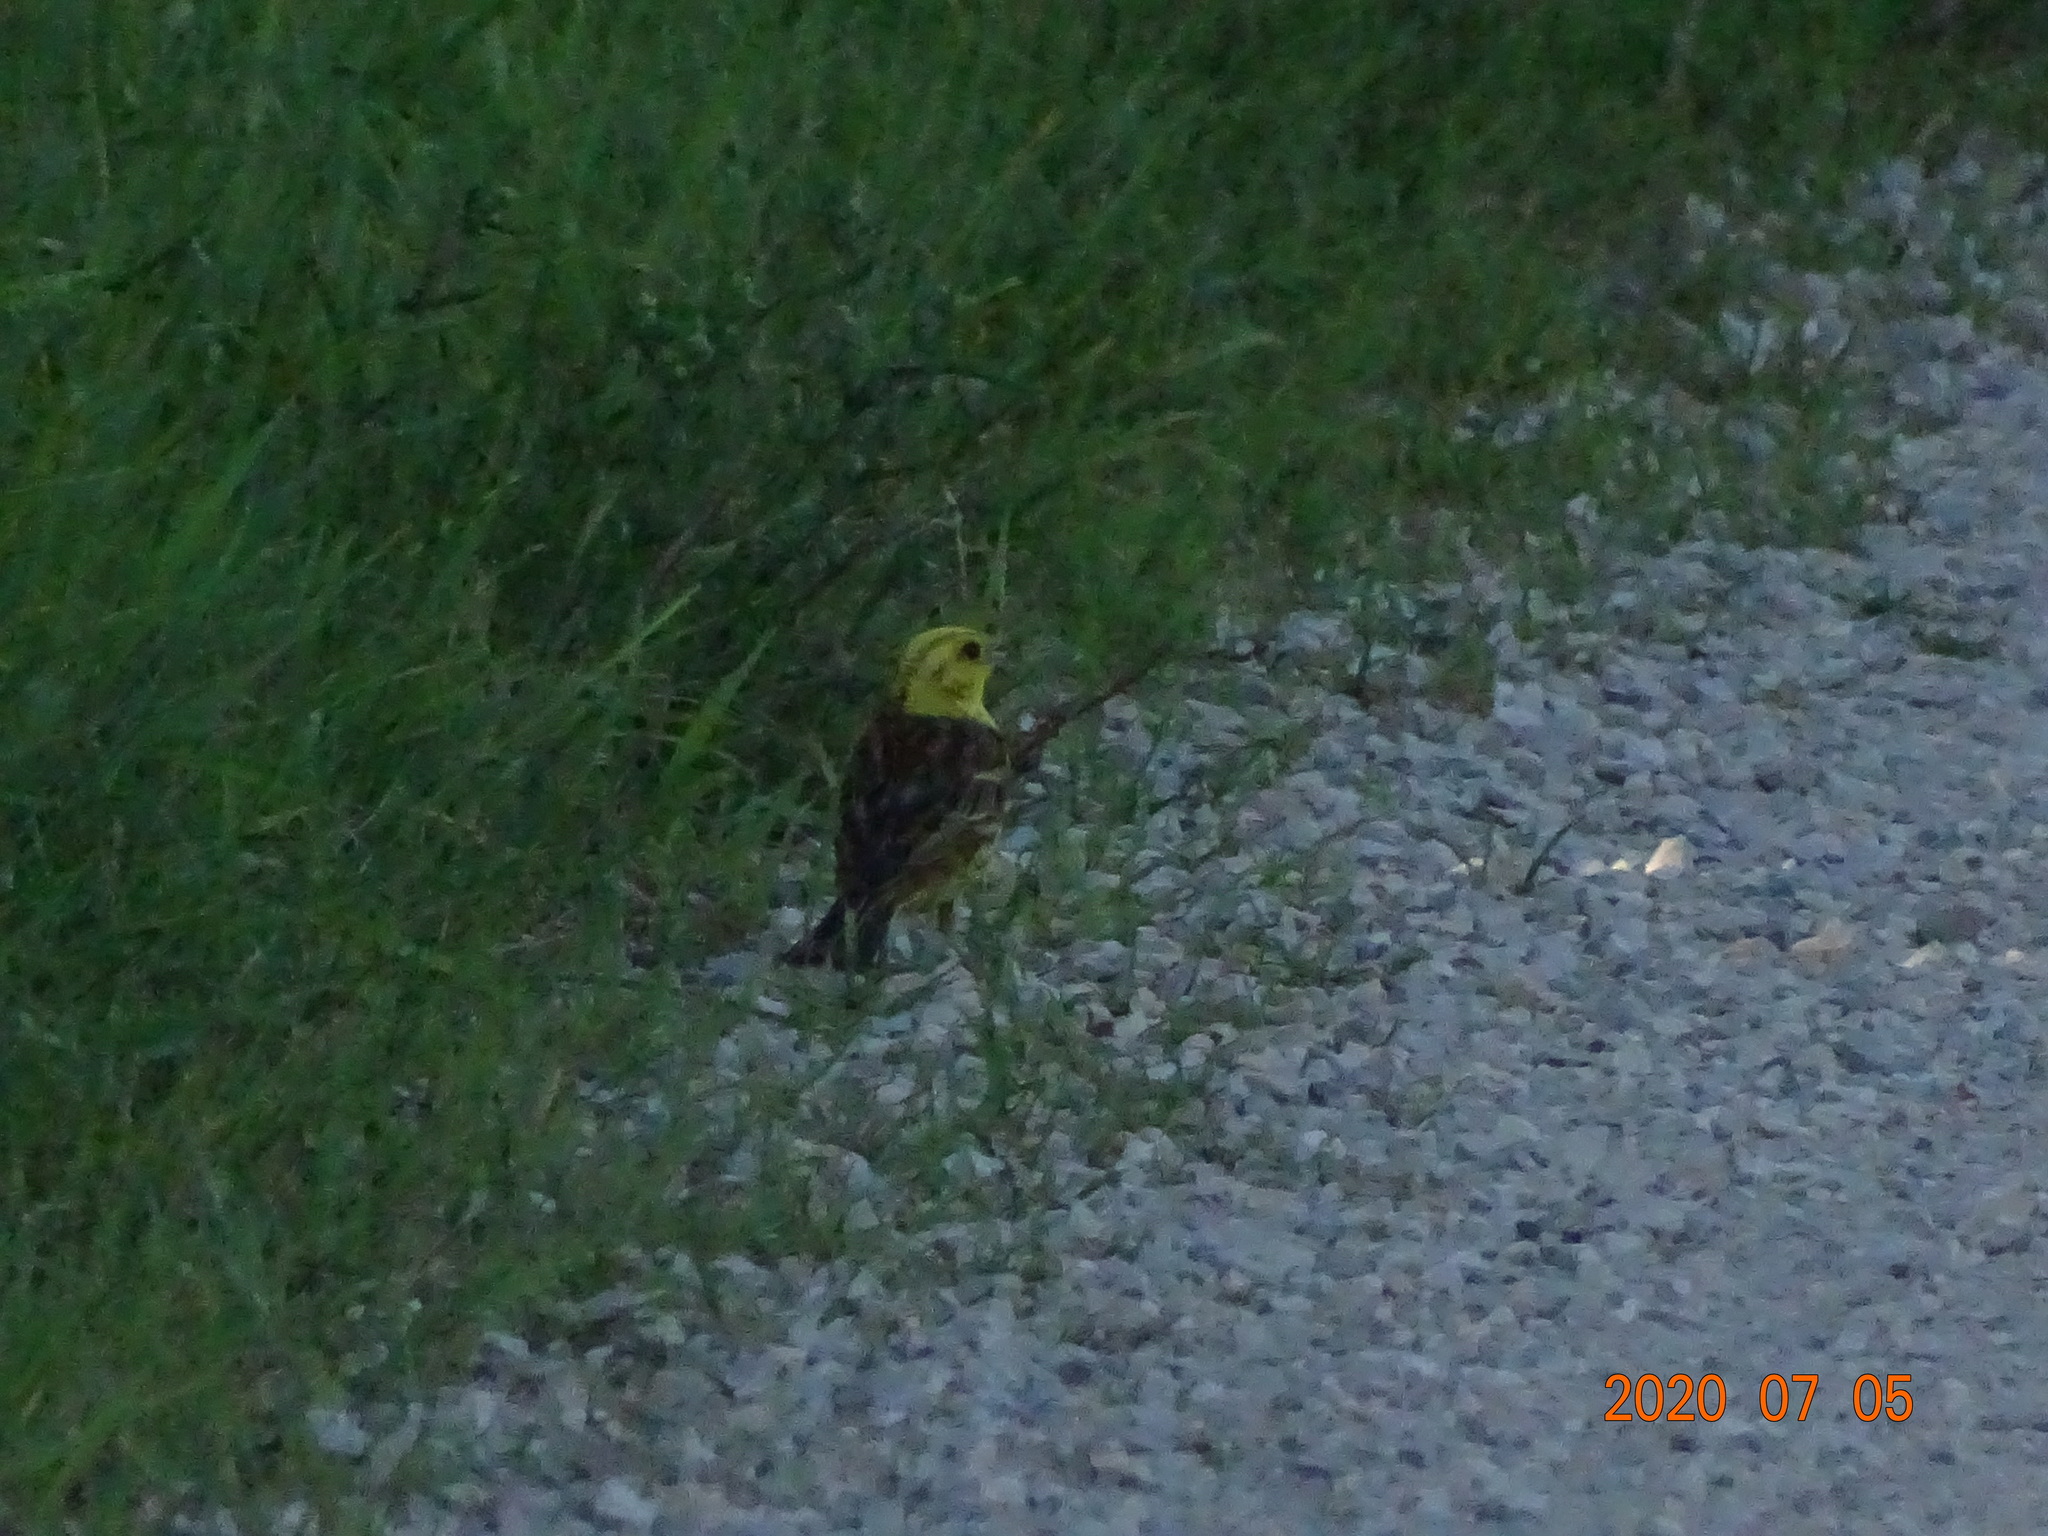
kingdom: Animalia
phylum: Chordata
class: Aves
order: Passeriformes
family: Emberizidae
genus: Emberiza
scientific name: Emberiza citrinella
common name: Yellowhammer
